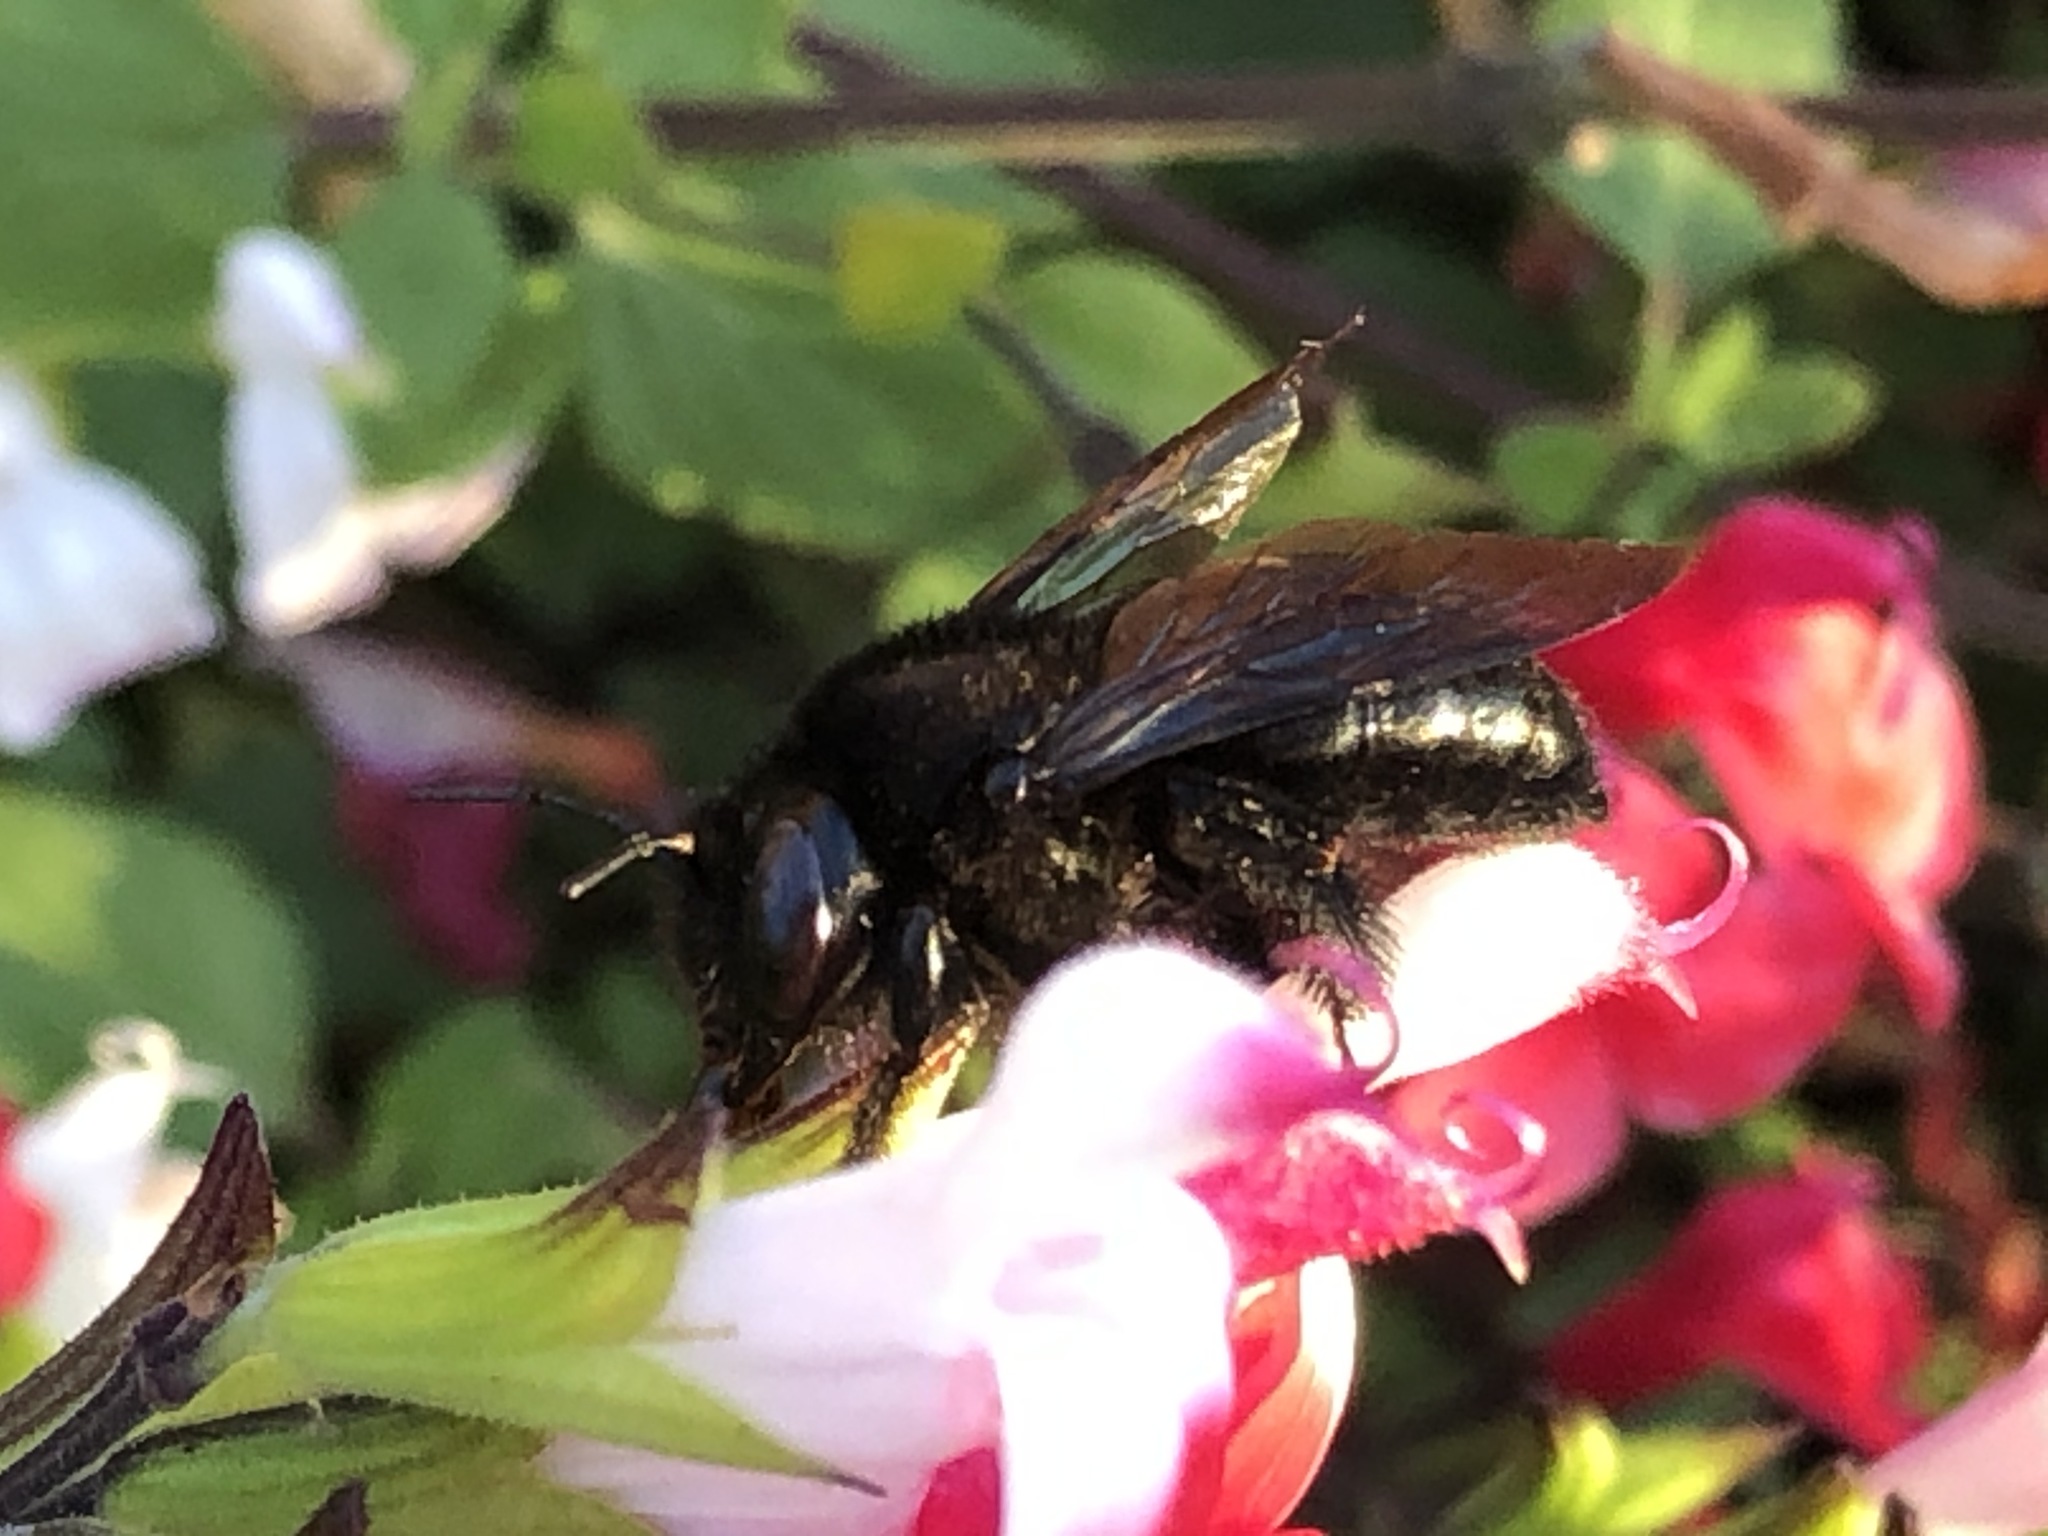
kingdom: Animalia
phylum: Arthropoda
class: Insecta
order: Hymenoptera
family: Apidae
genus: Xylocopa
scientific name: Xylocopa tabaniformis
